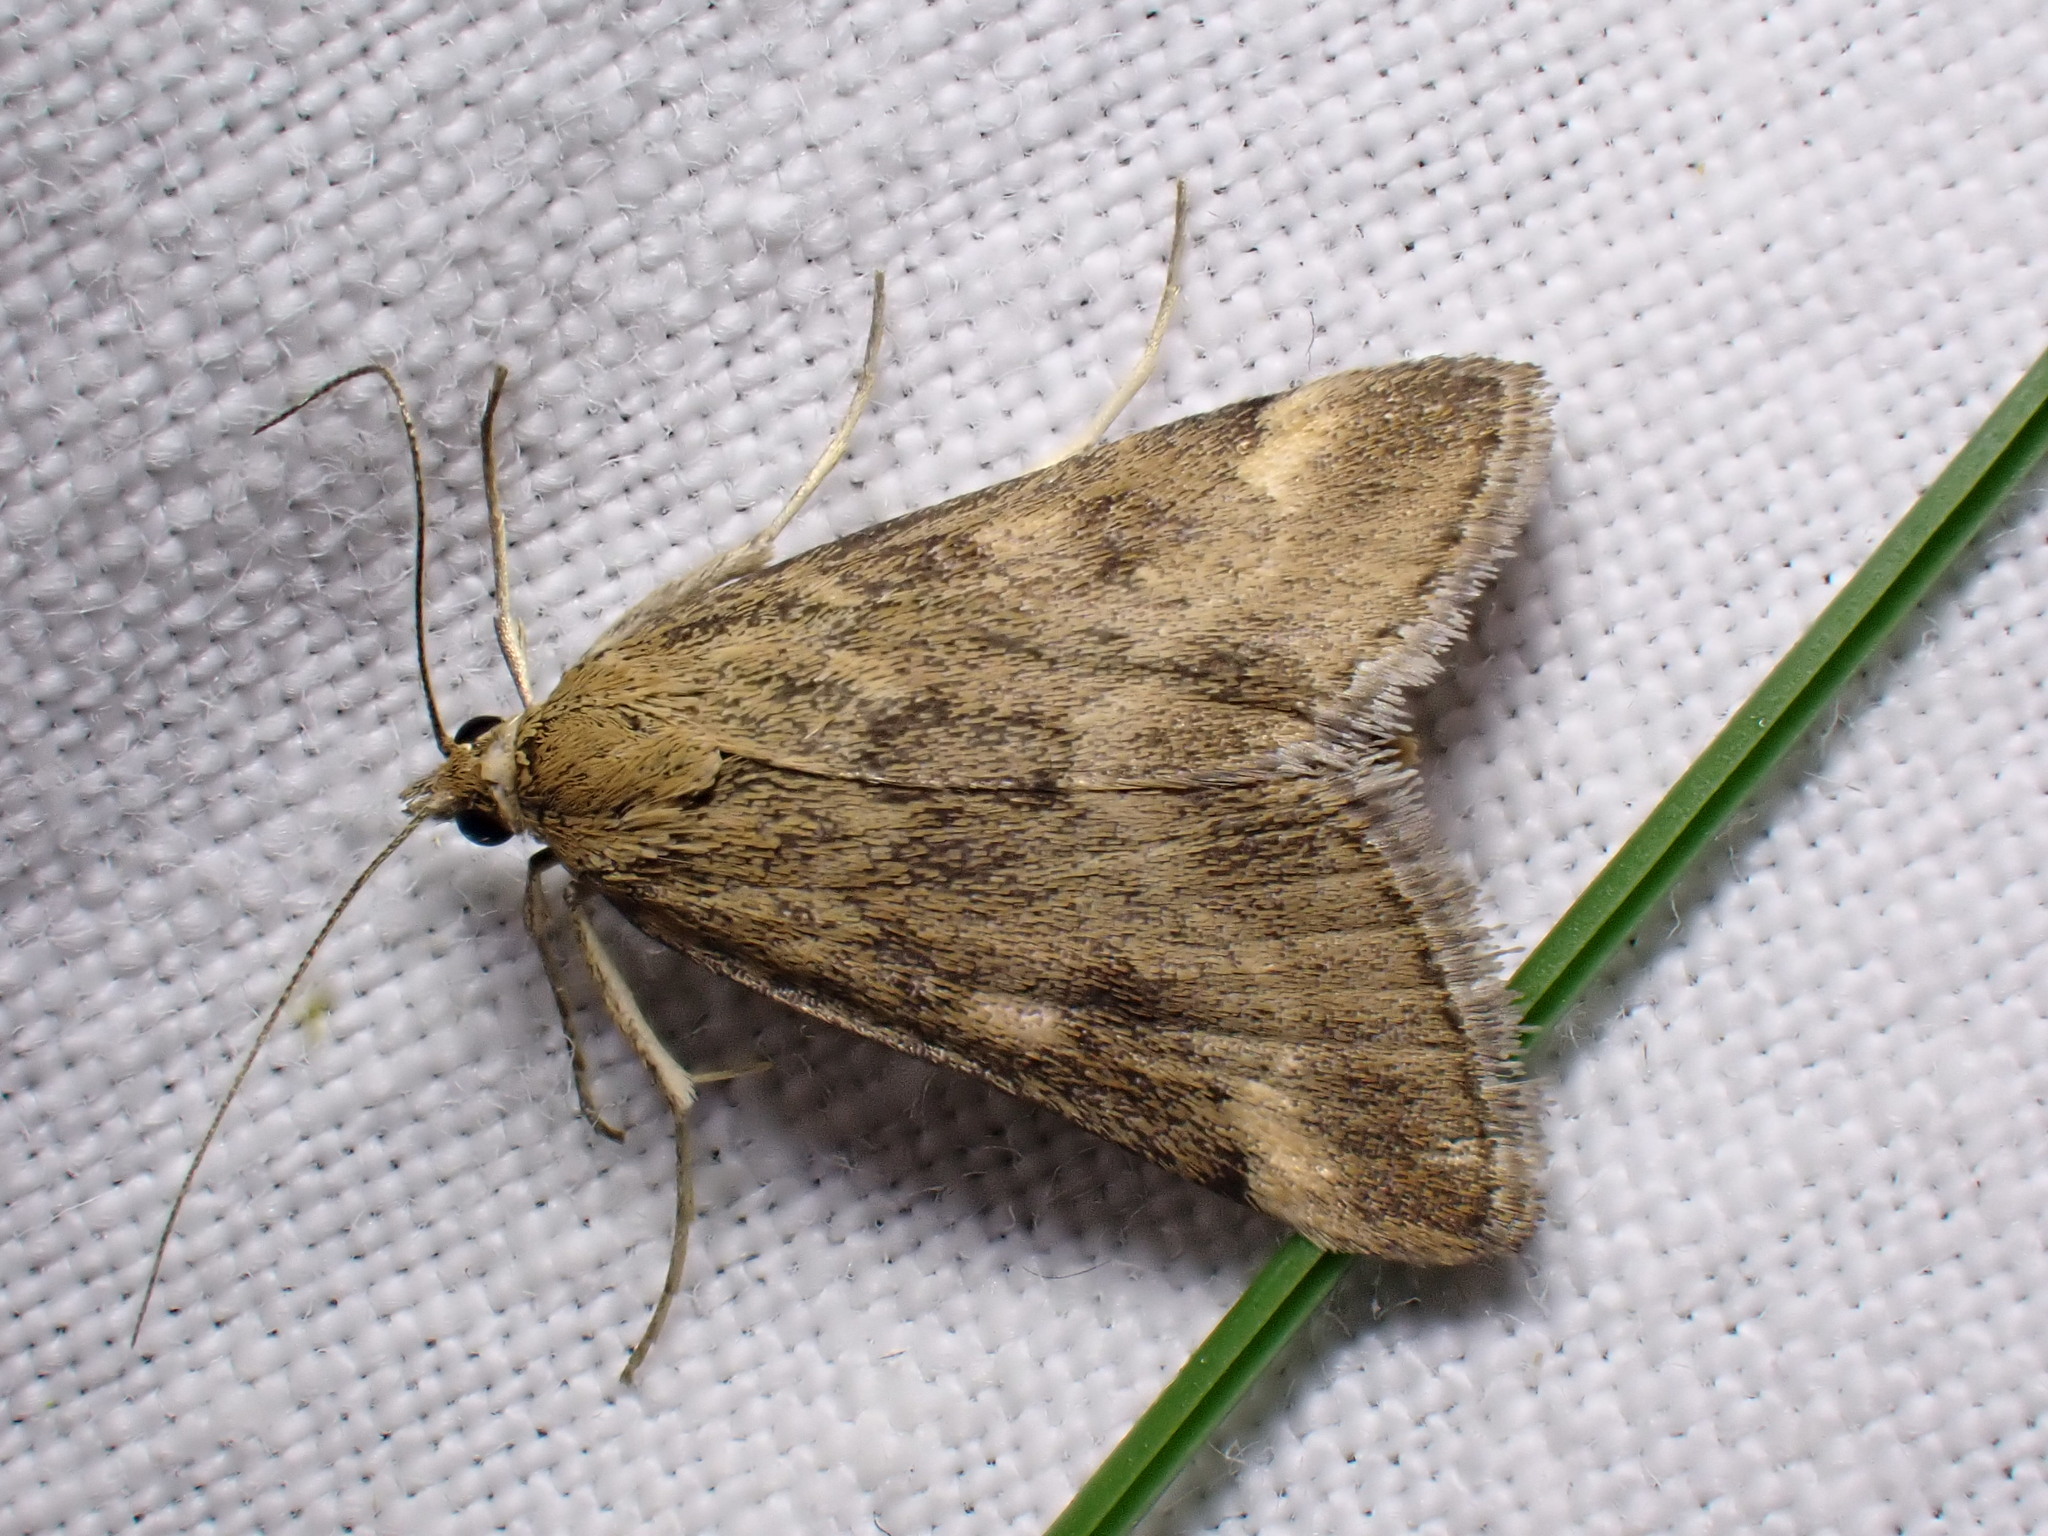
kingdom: Animalia
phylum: Arthropoda
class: Insecta
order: Lepidoptera
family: Crambidae
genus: Pyrausta
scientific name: Pyrausta despicata
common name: Straw-barred pearl
